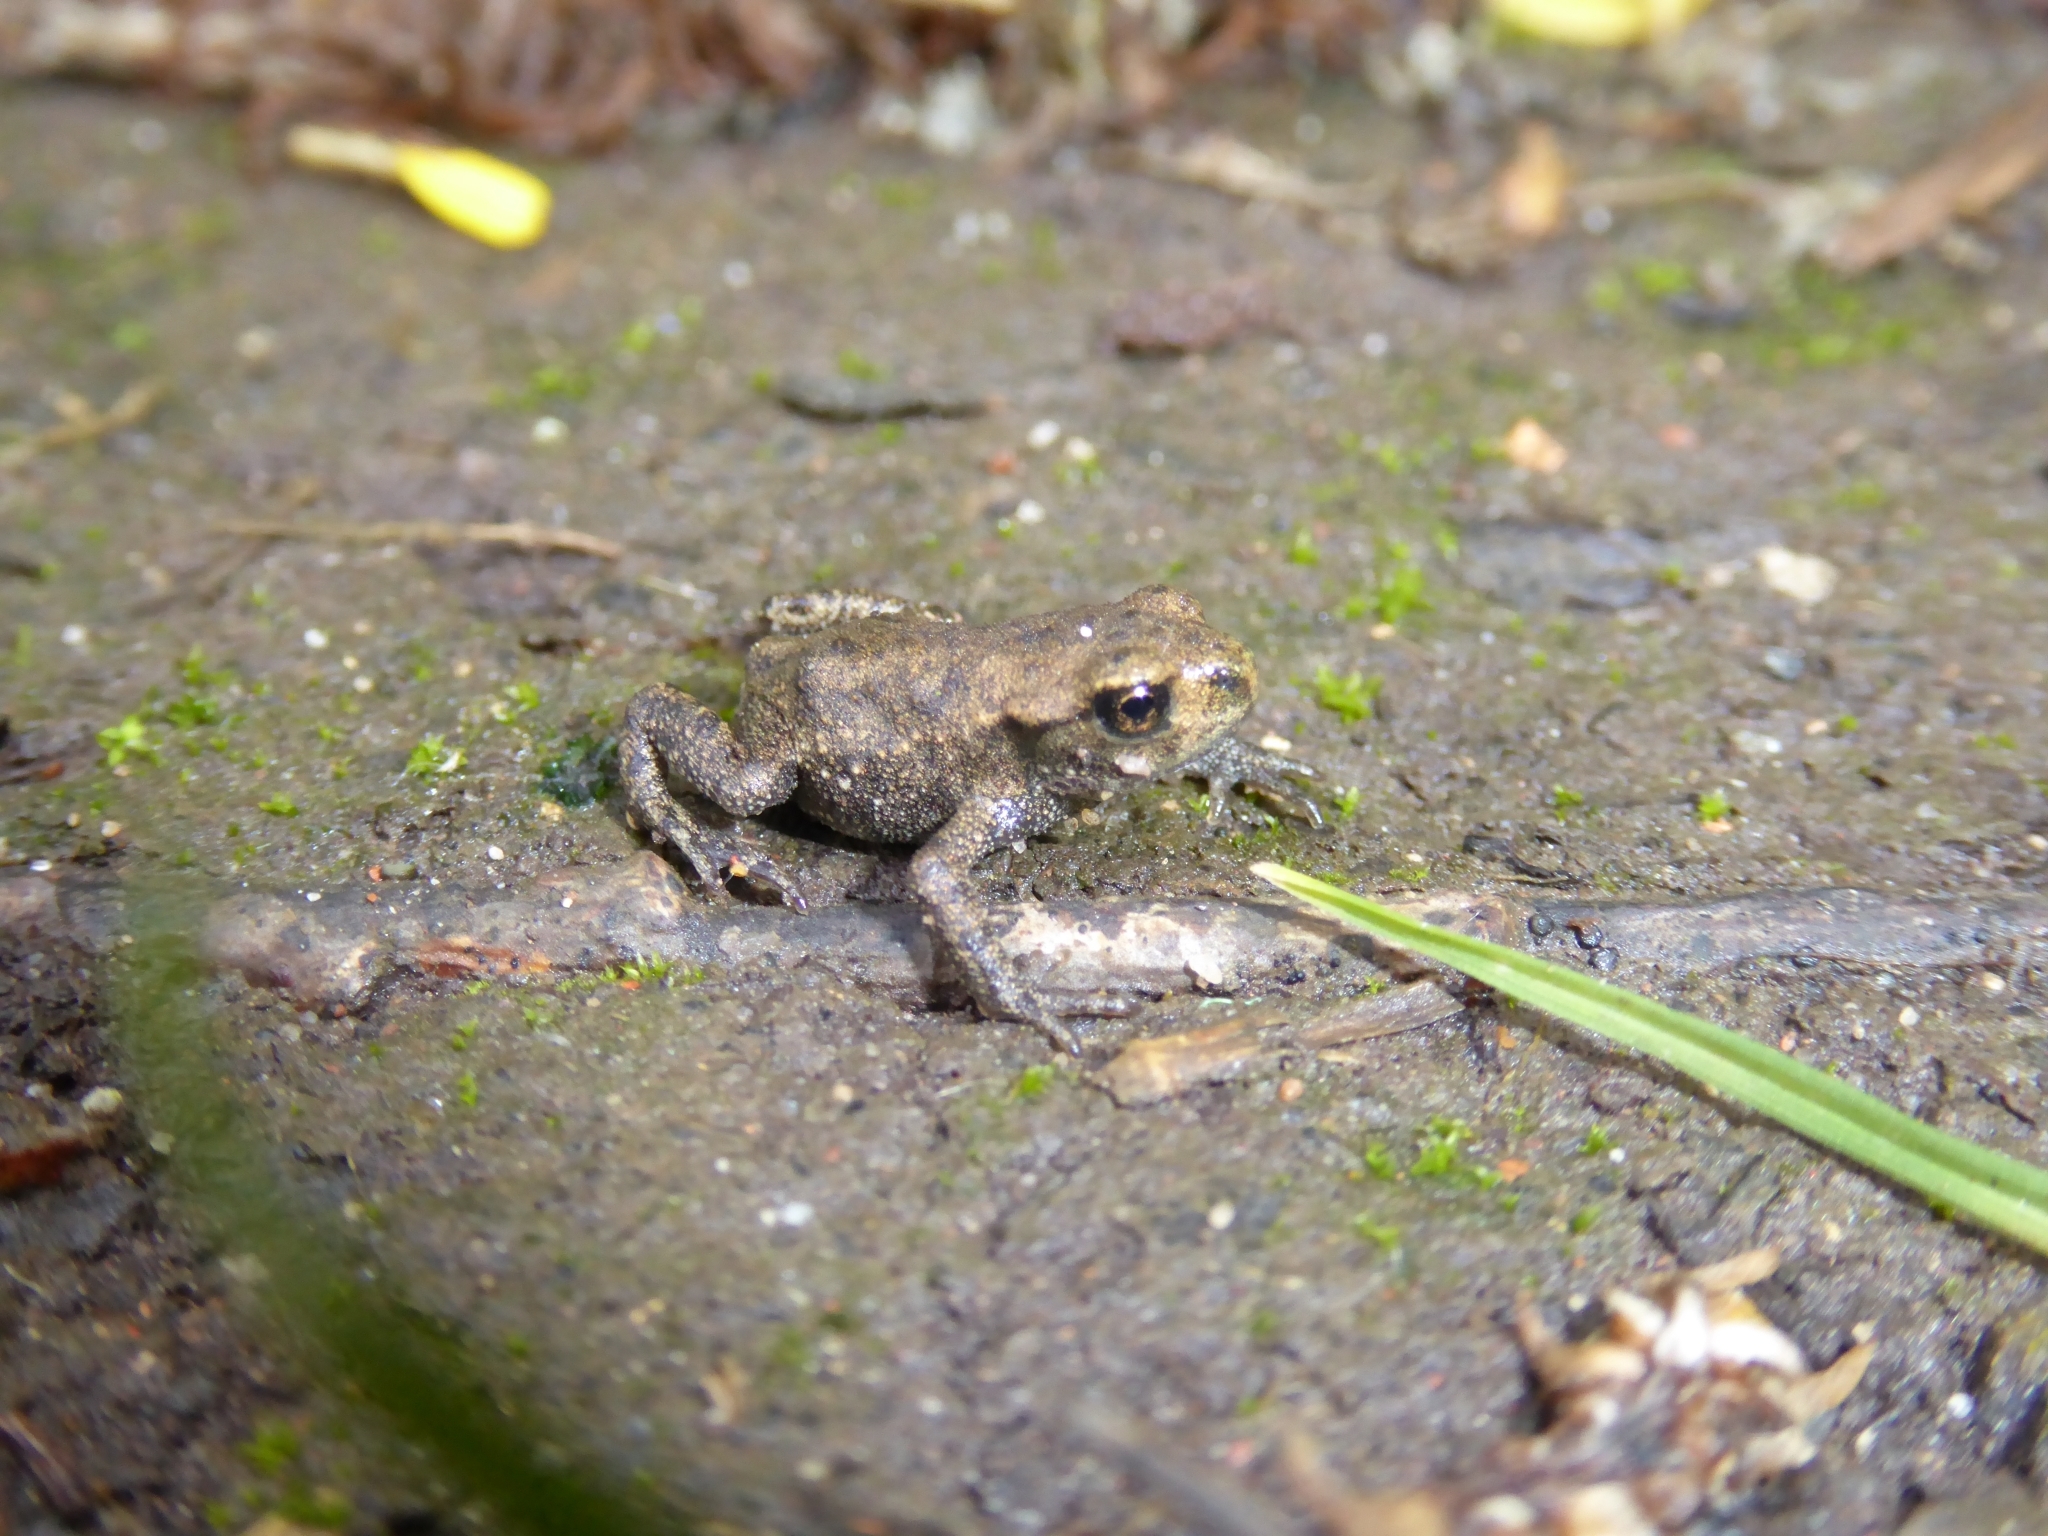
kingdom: Animalia
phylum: Chordata
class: Amphibia
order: Anura
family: Bufonidae
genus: Bufo
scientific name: Bufo bufo
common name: Common toad
